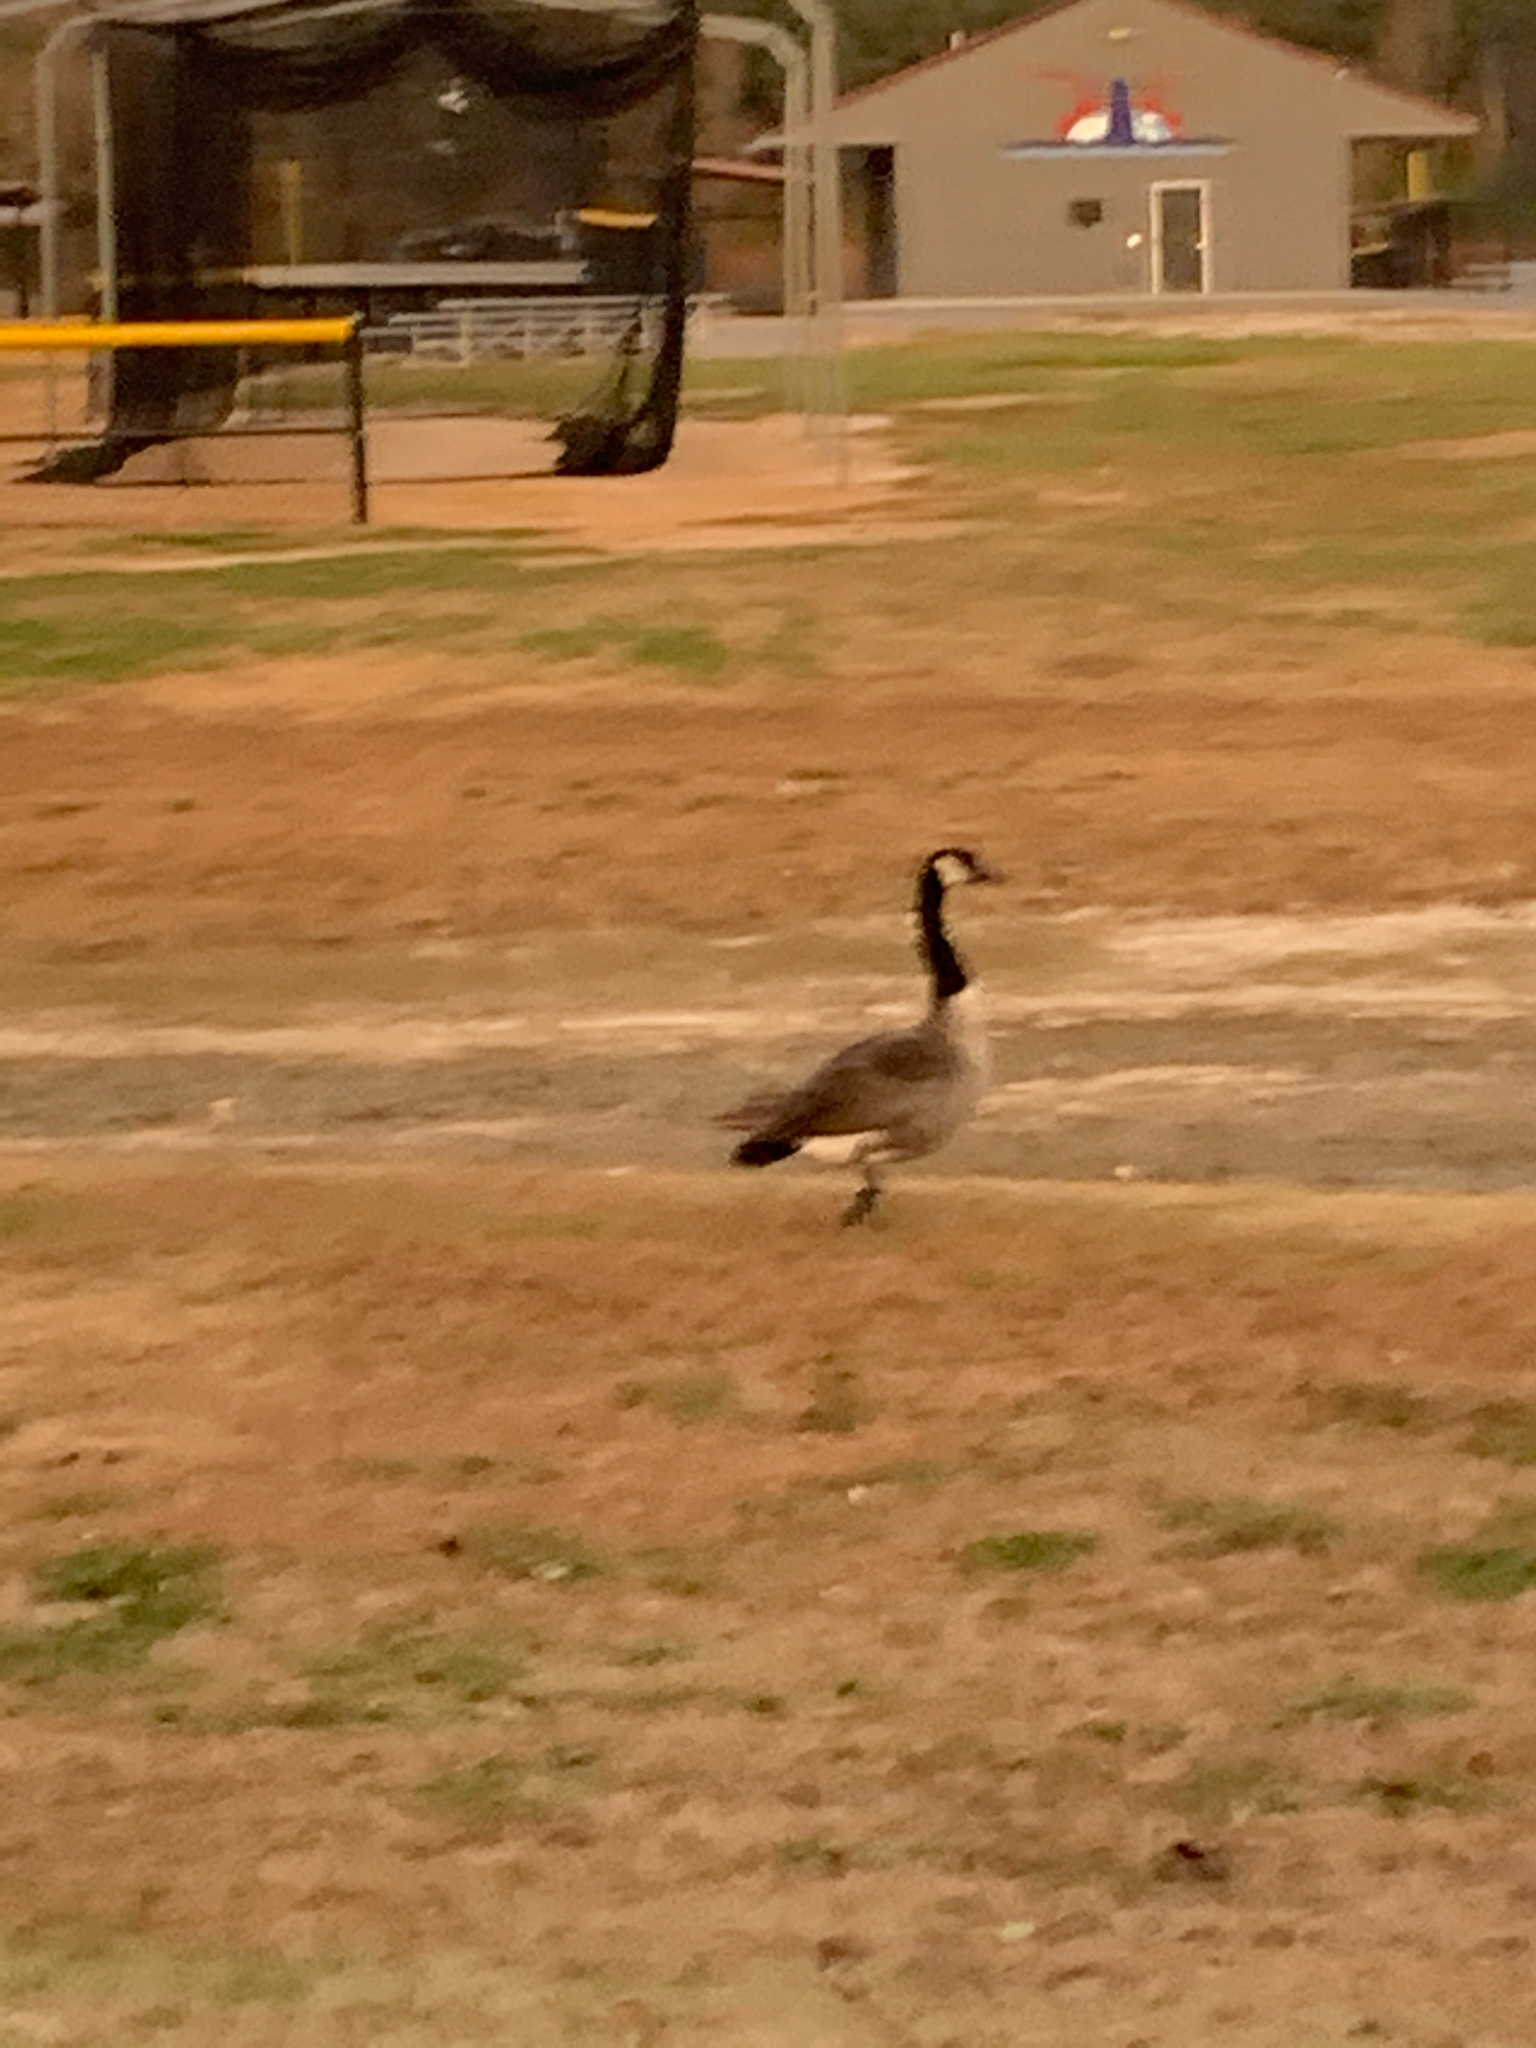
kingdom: Animalia
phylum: Chordata
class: Aves
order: Anseriformes
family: Anatidae
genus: Branta
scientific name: Branta canadensis
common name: Canada goose
